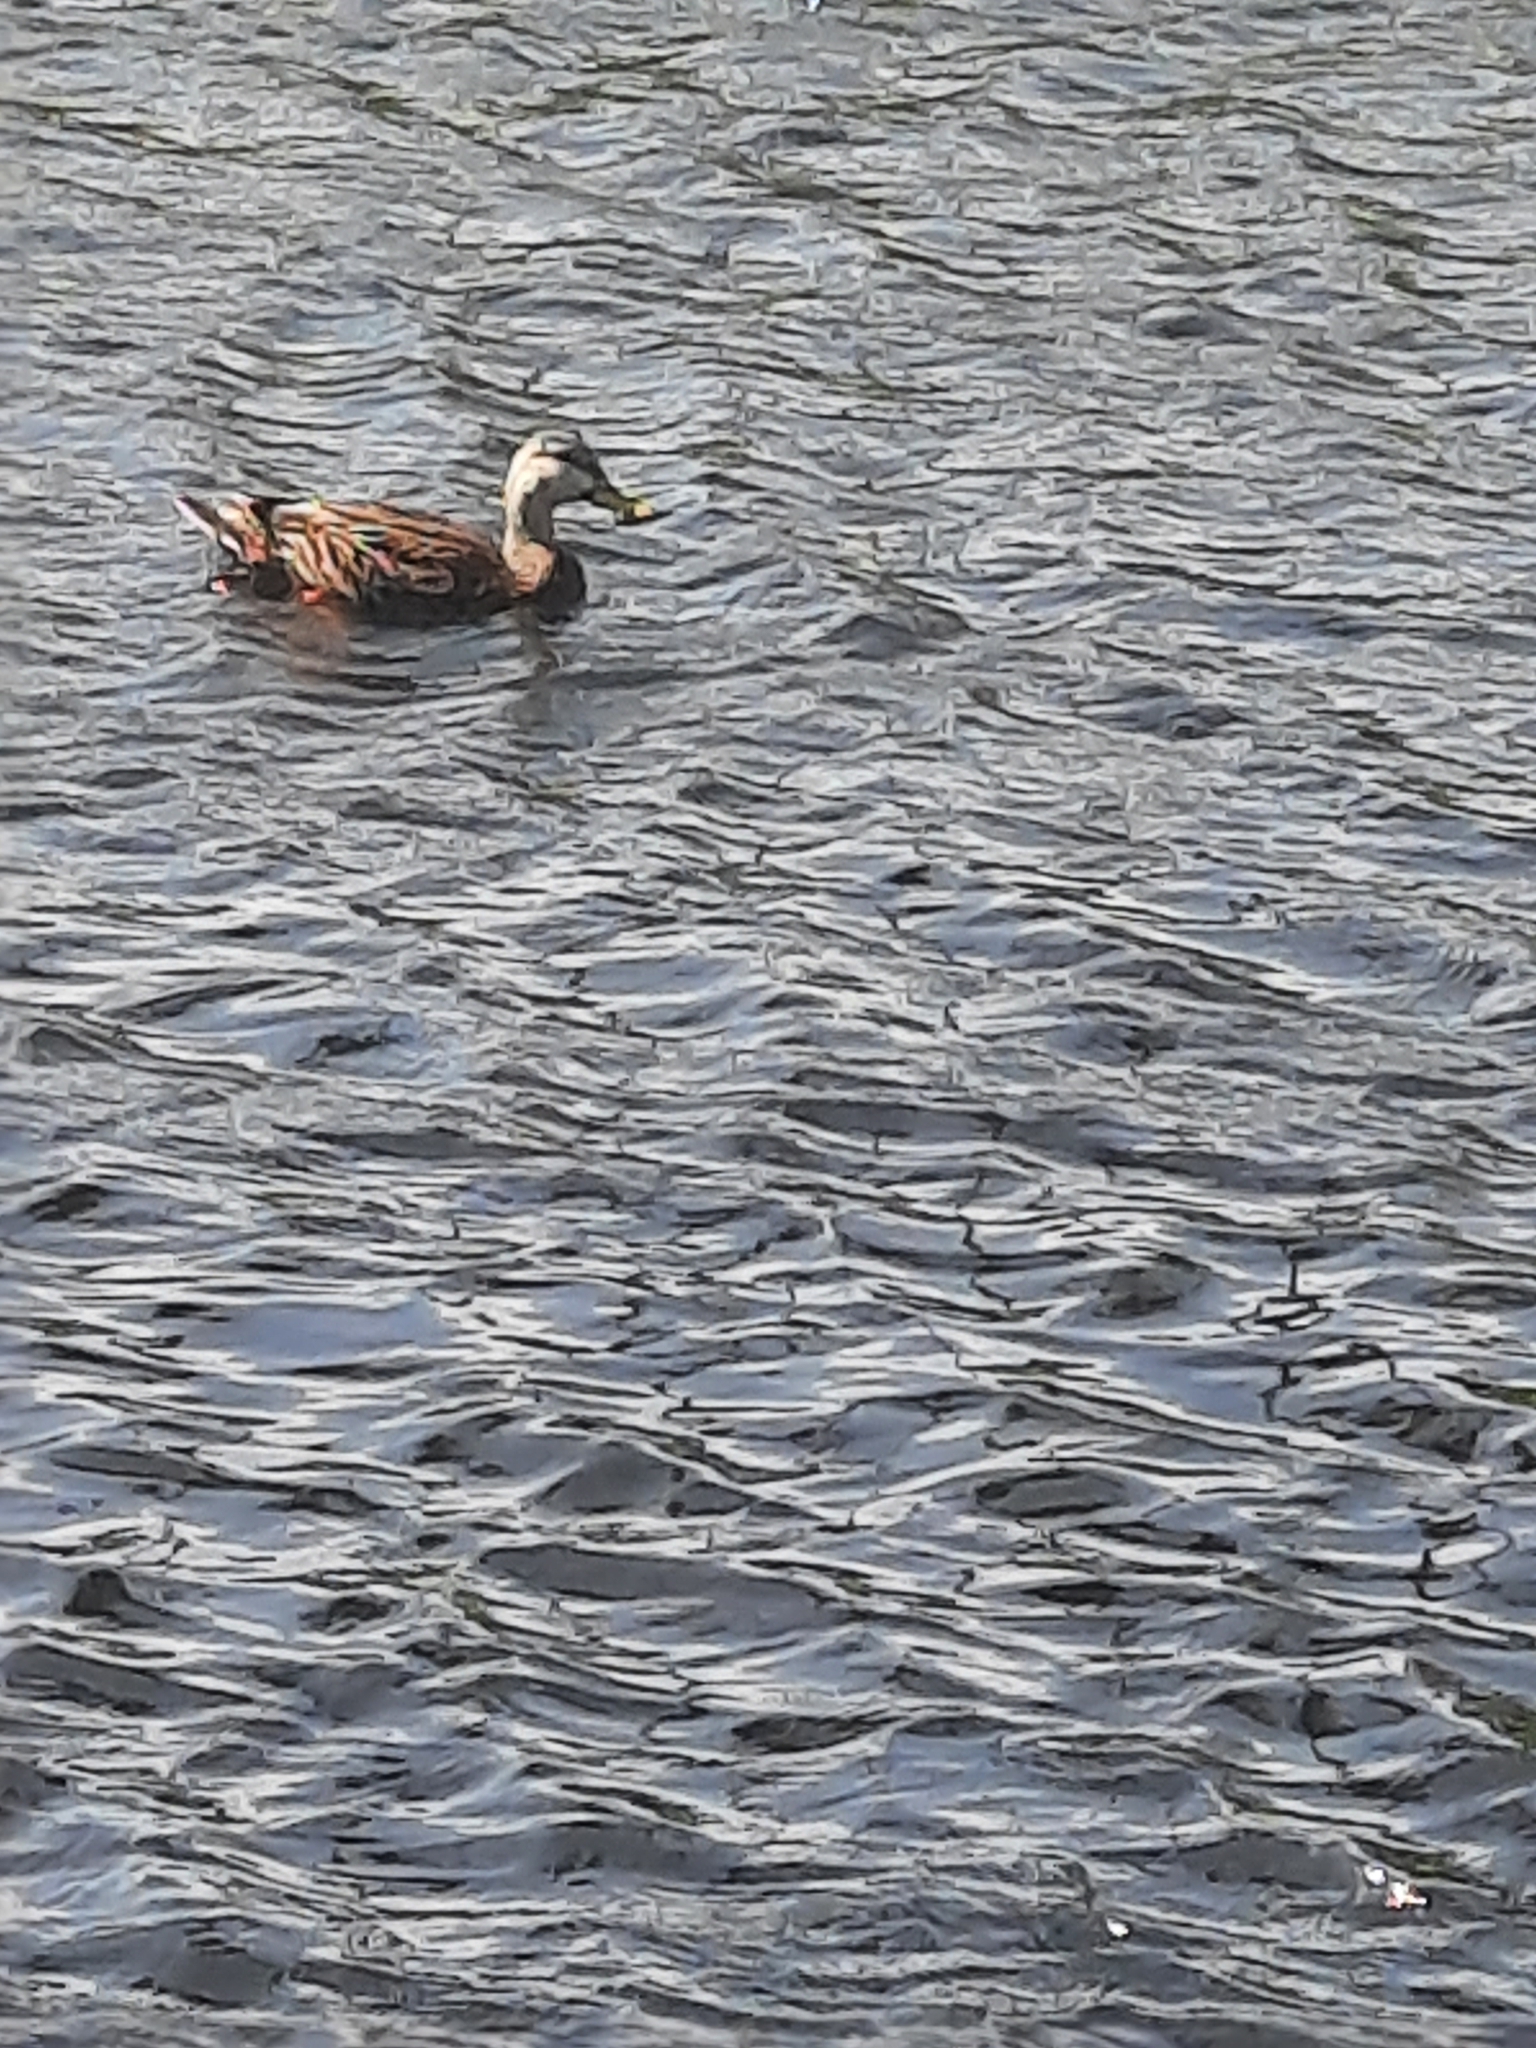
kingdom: Animalia
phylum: Chordata
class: Aves
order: Anseriformes
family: Anatidae
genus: Anas
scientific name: Anas
